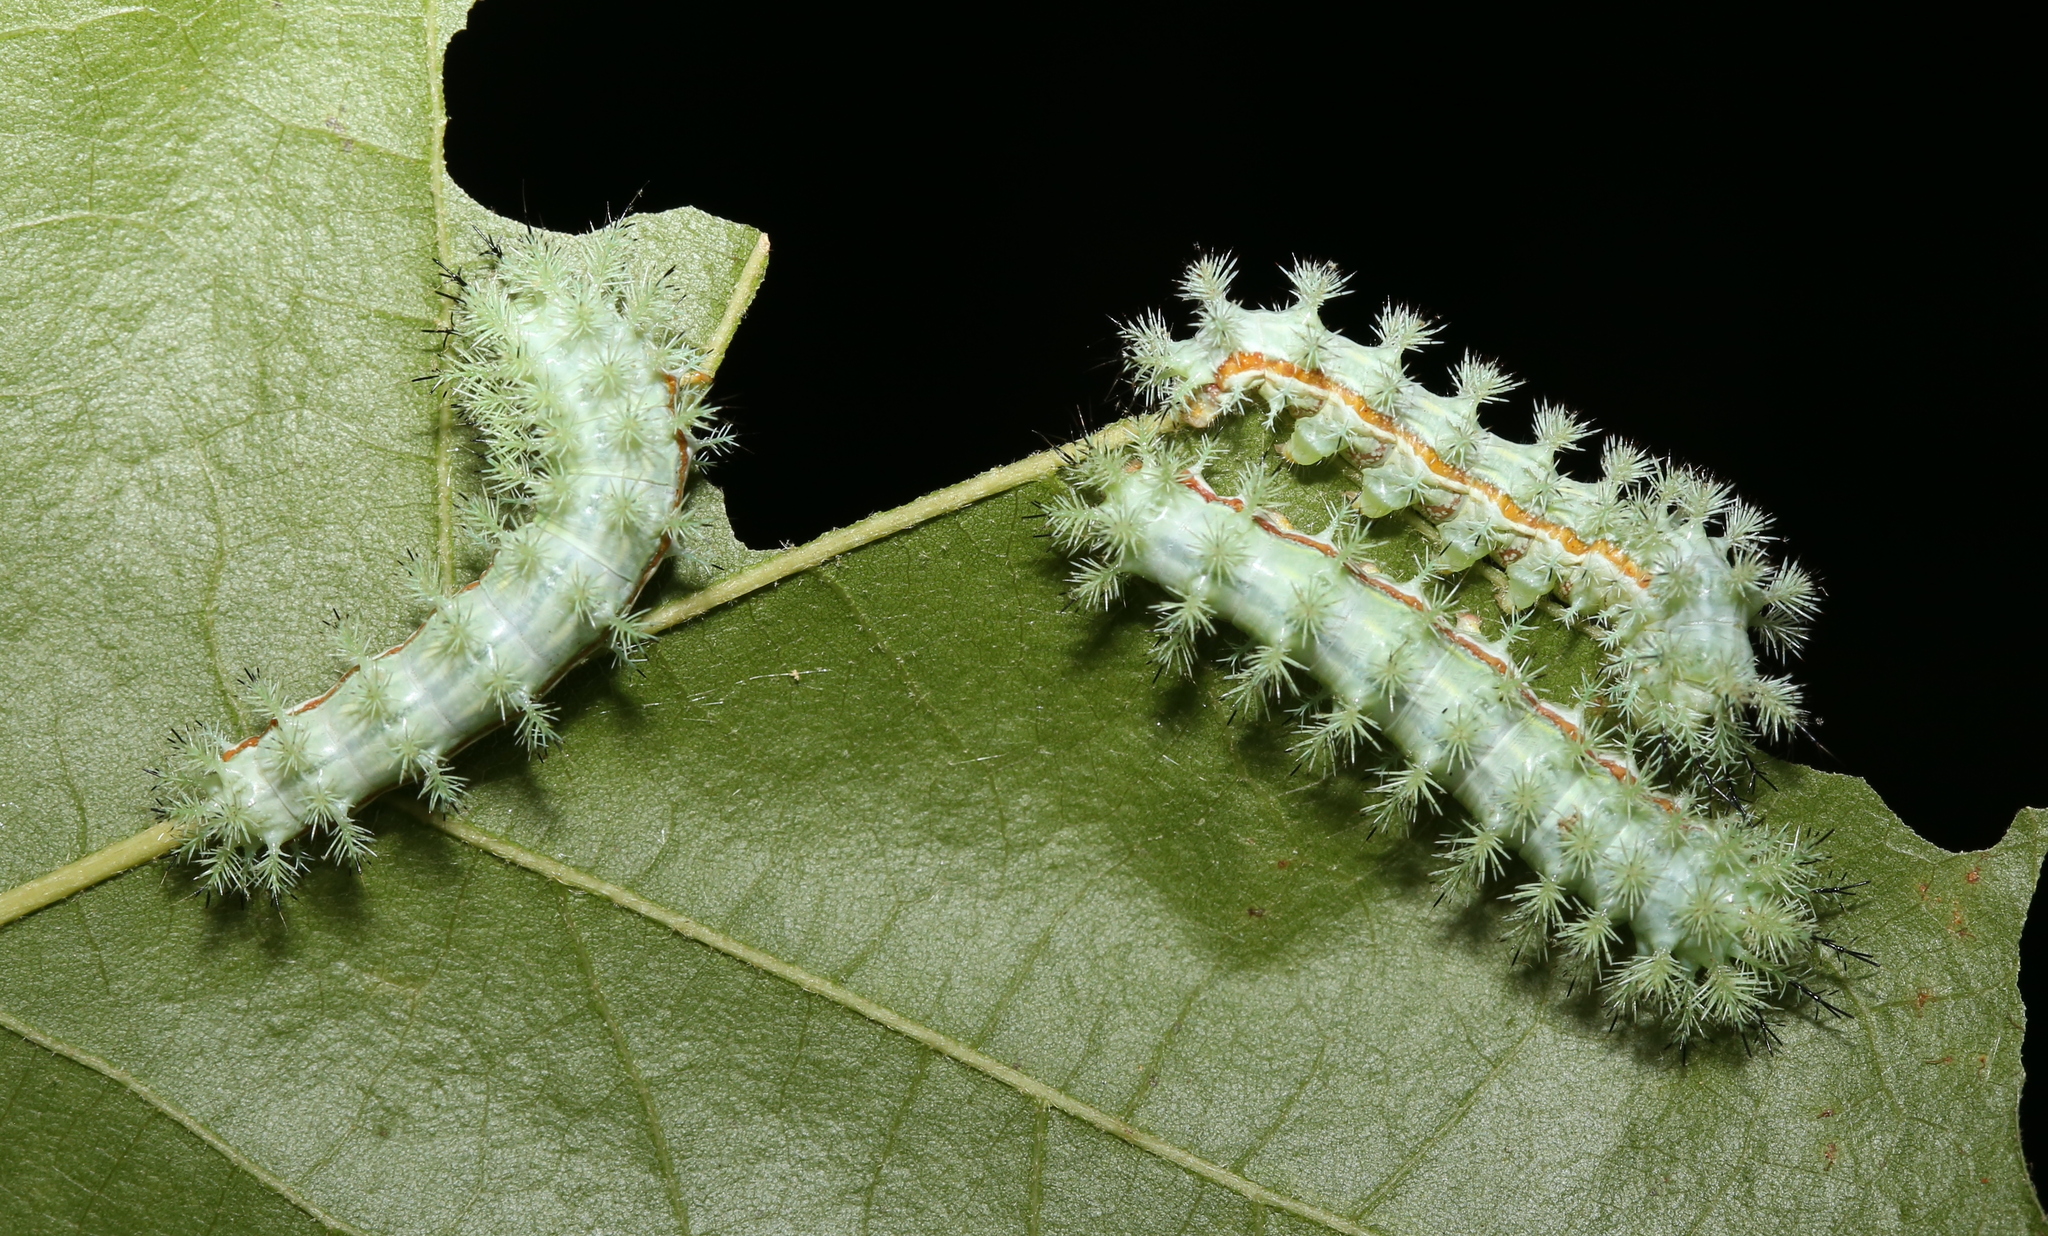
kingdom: Animalia
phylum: Arthropoda
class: Insecta
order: Lepidoptera
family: Saturniidae
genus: Automeris
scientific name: Automeris io
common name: Io moth
